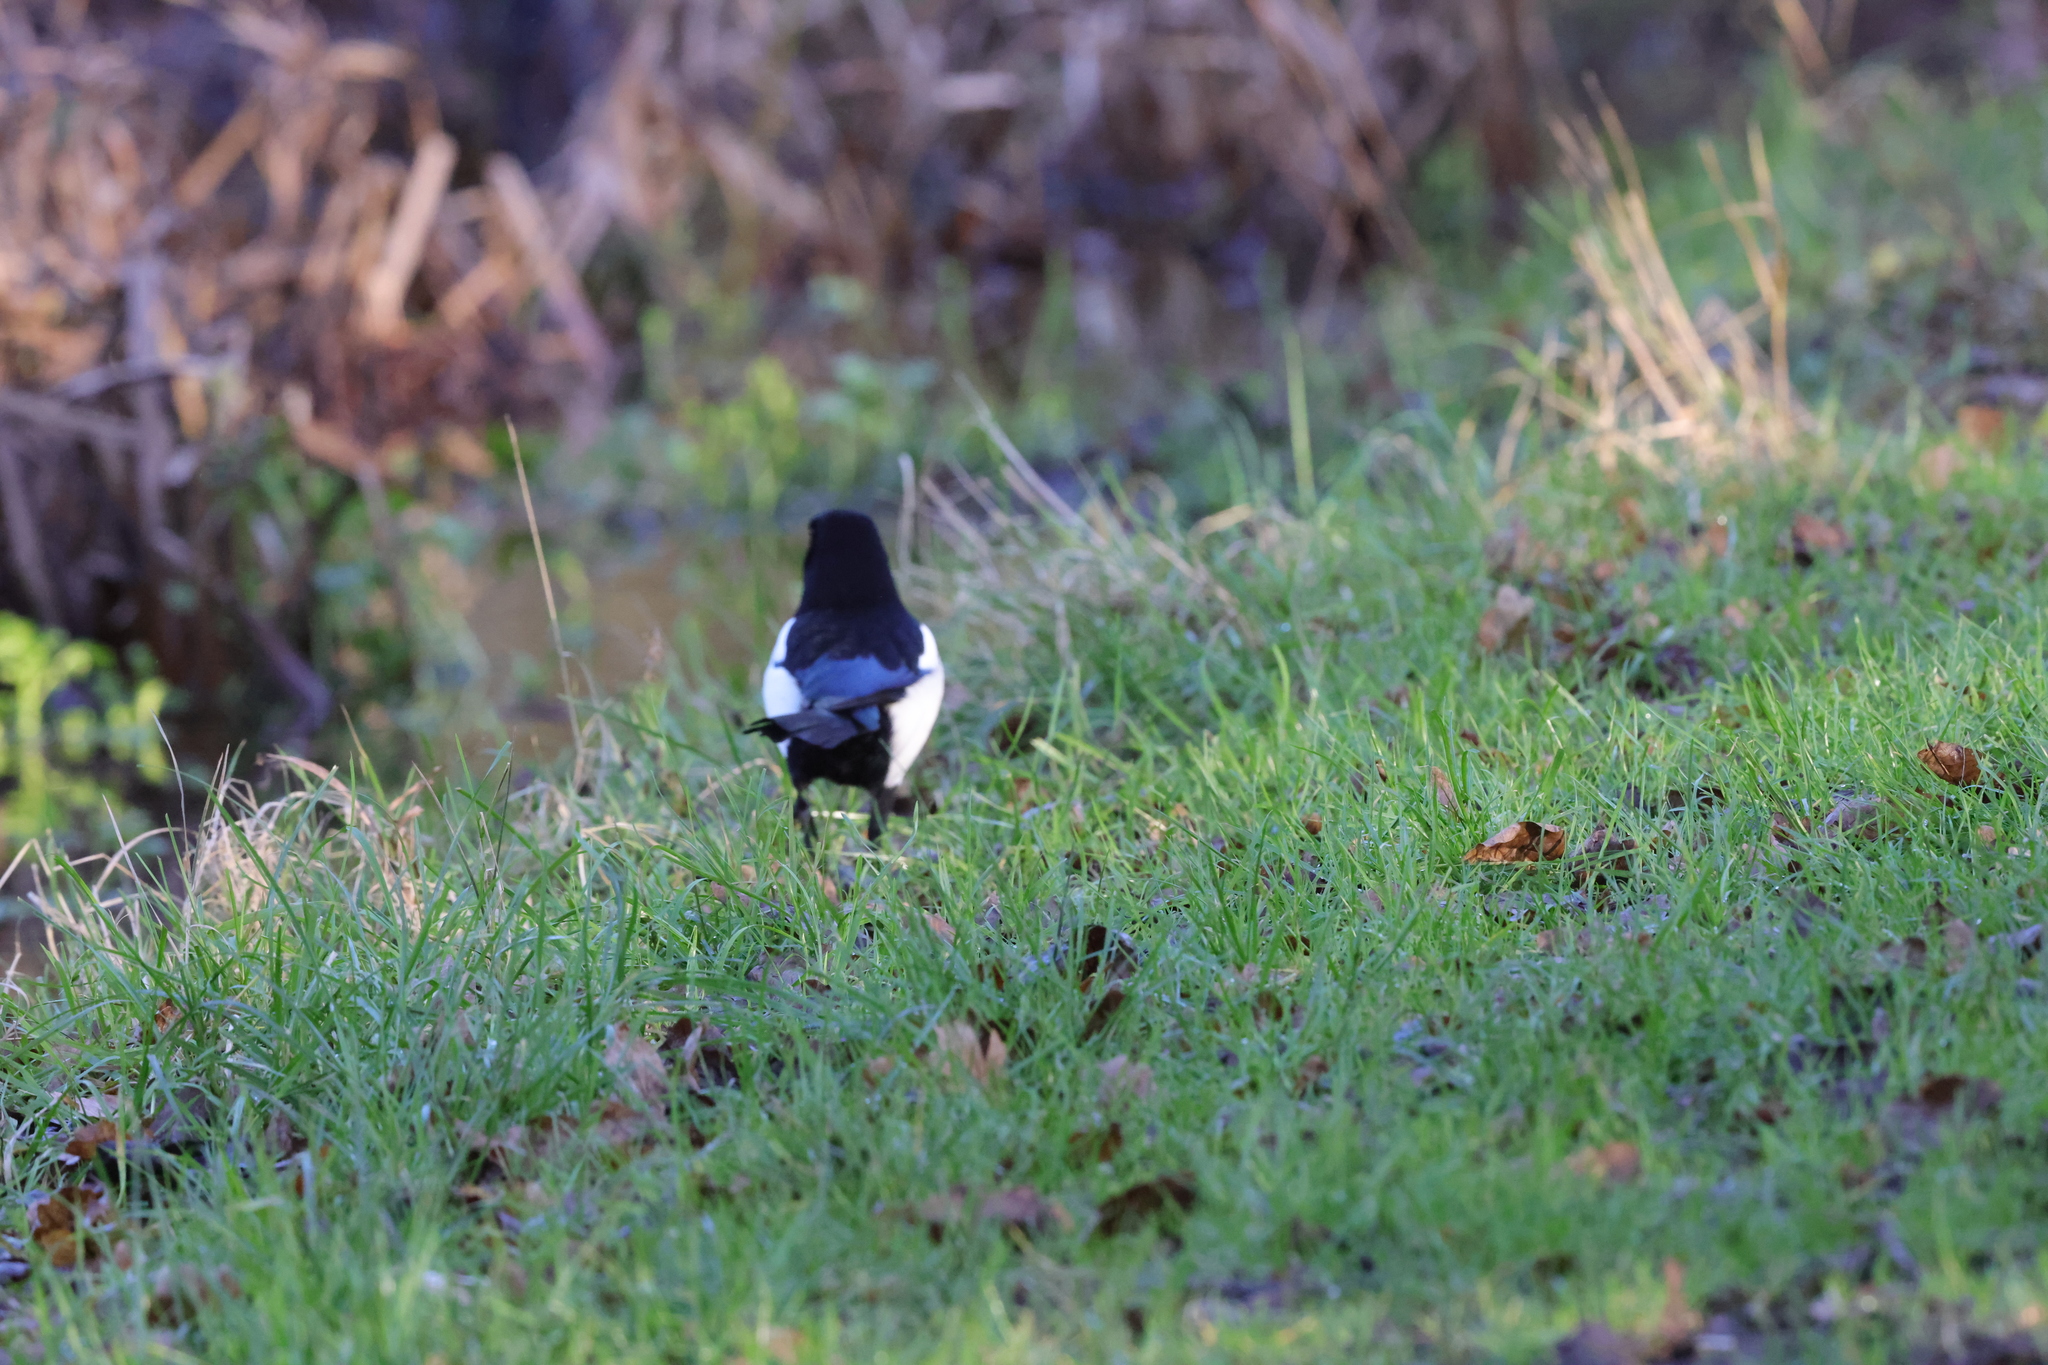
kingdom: Animalia
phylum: Chordata
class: Aves
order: Passeriformes
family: Corvidae
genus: Pica
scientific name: Pica pica
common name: Eurasian magpie
